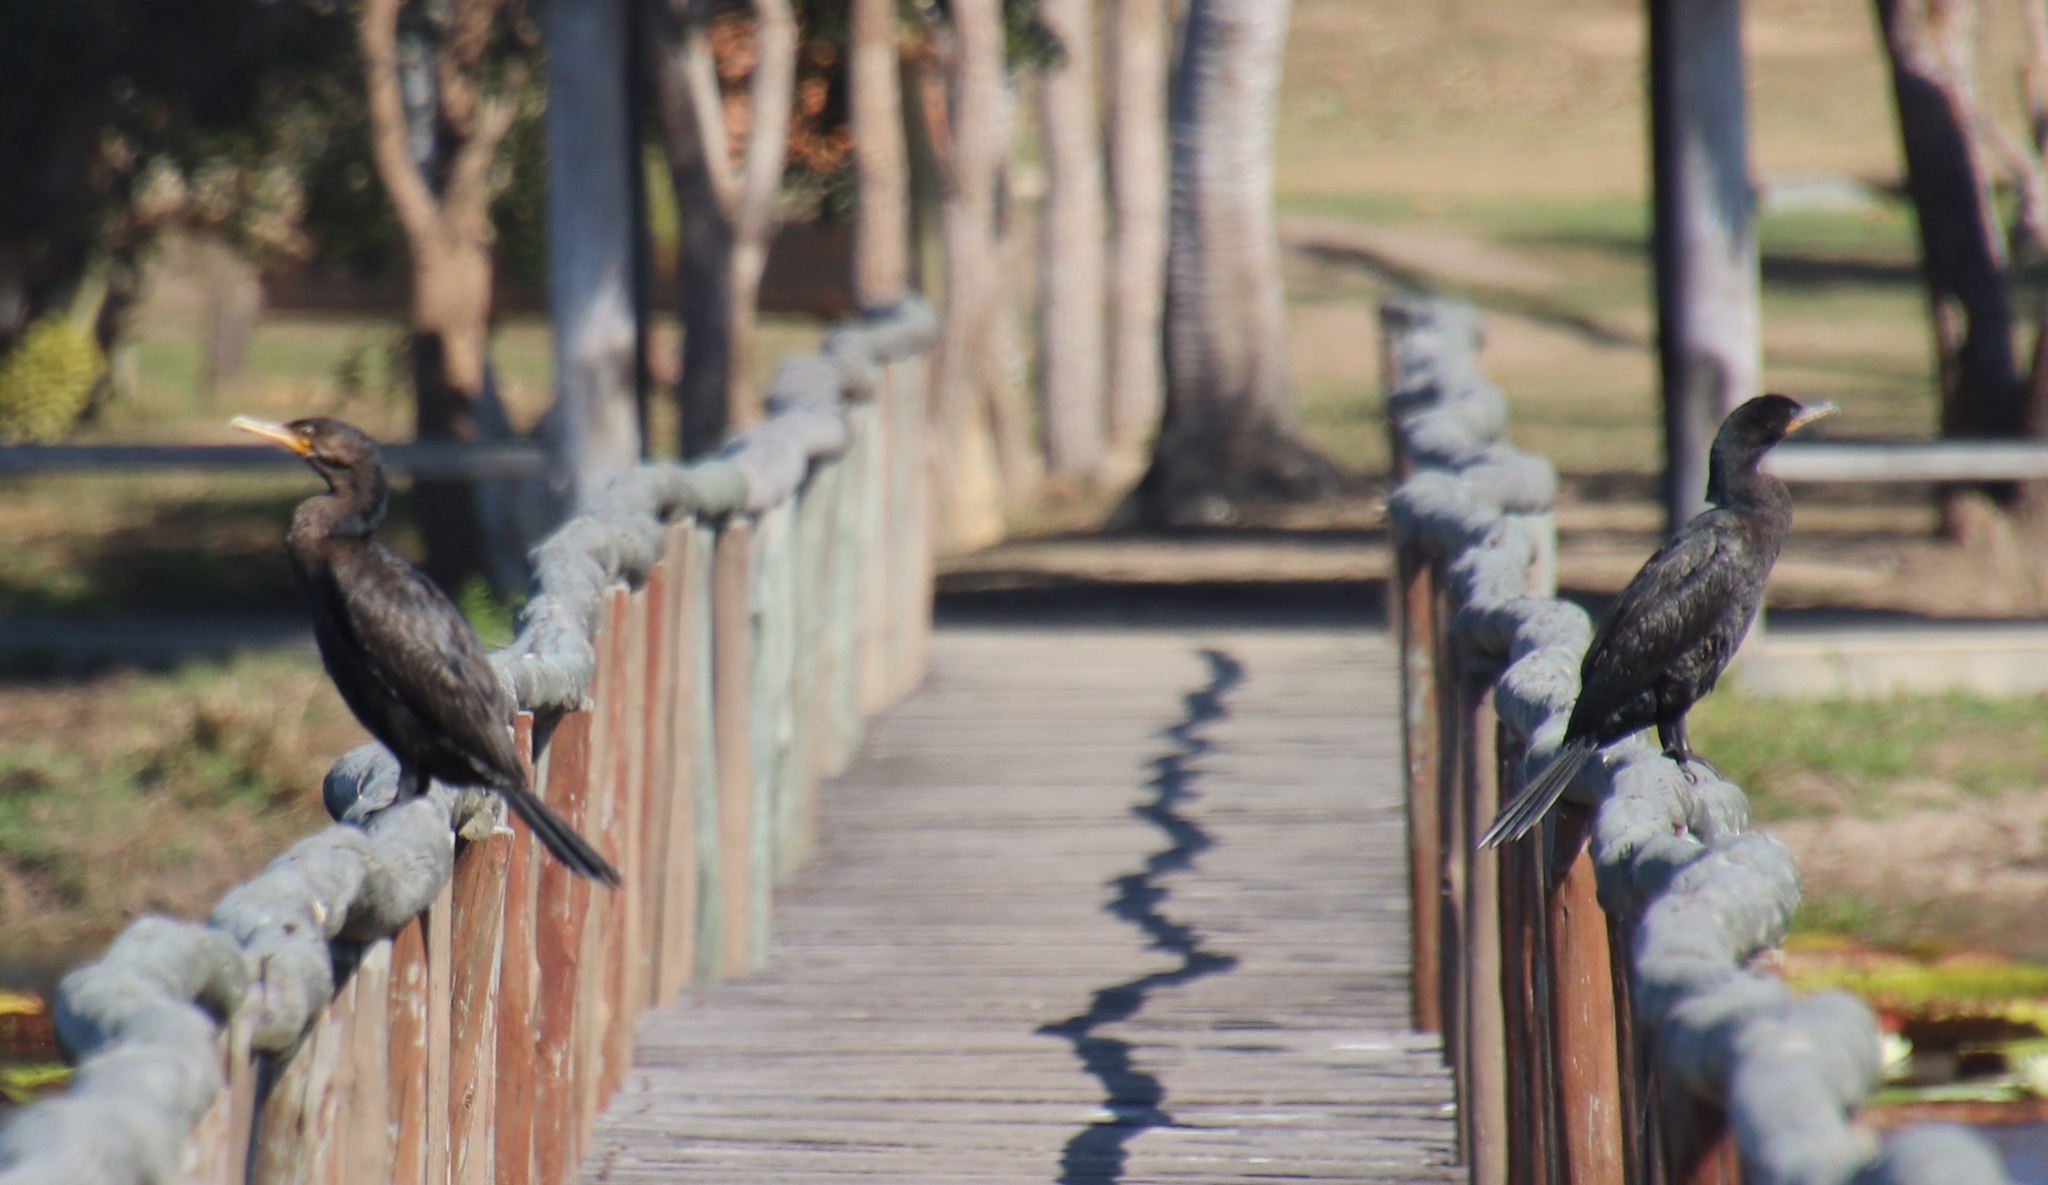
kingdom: Animalia
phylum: Chordata
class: Aves
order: Suliformes
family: Phalacrocoracidae
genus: Phalacrocorax
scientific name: Phalacrocorax brasilianus
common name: Neotropic cormorant
